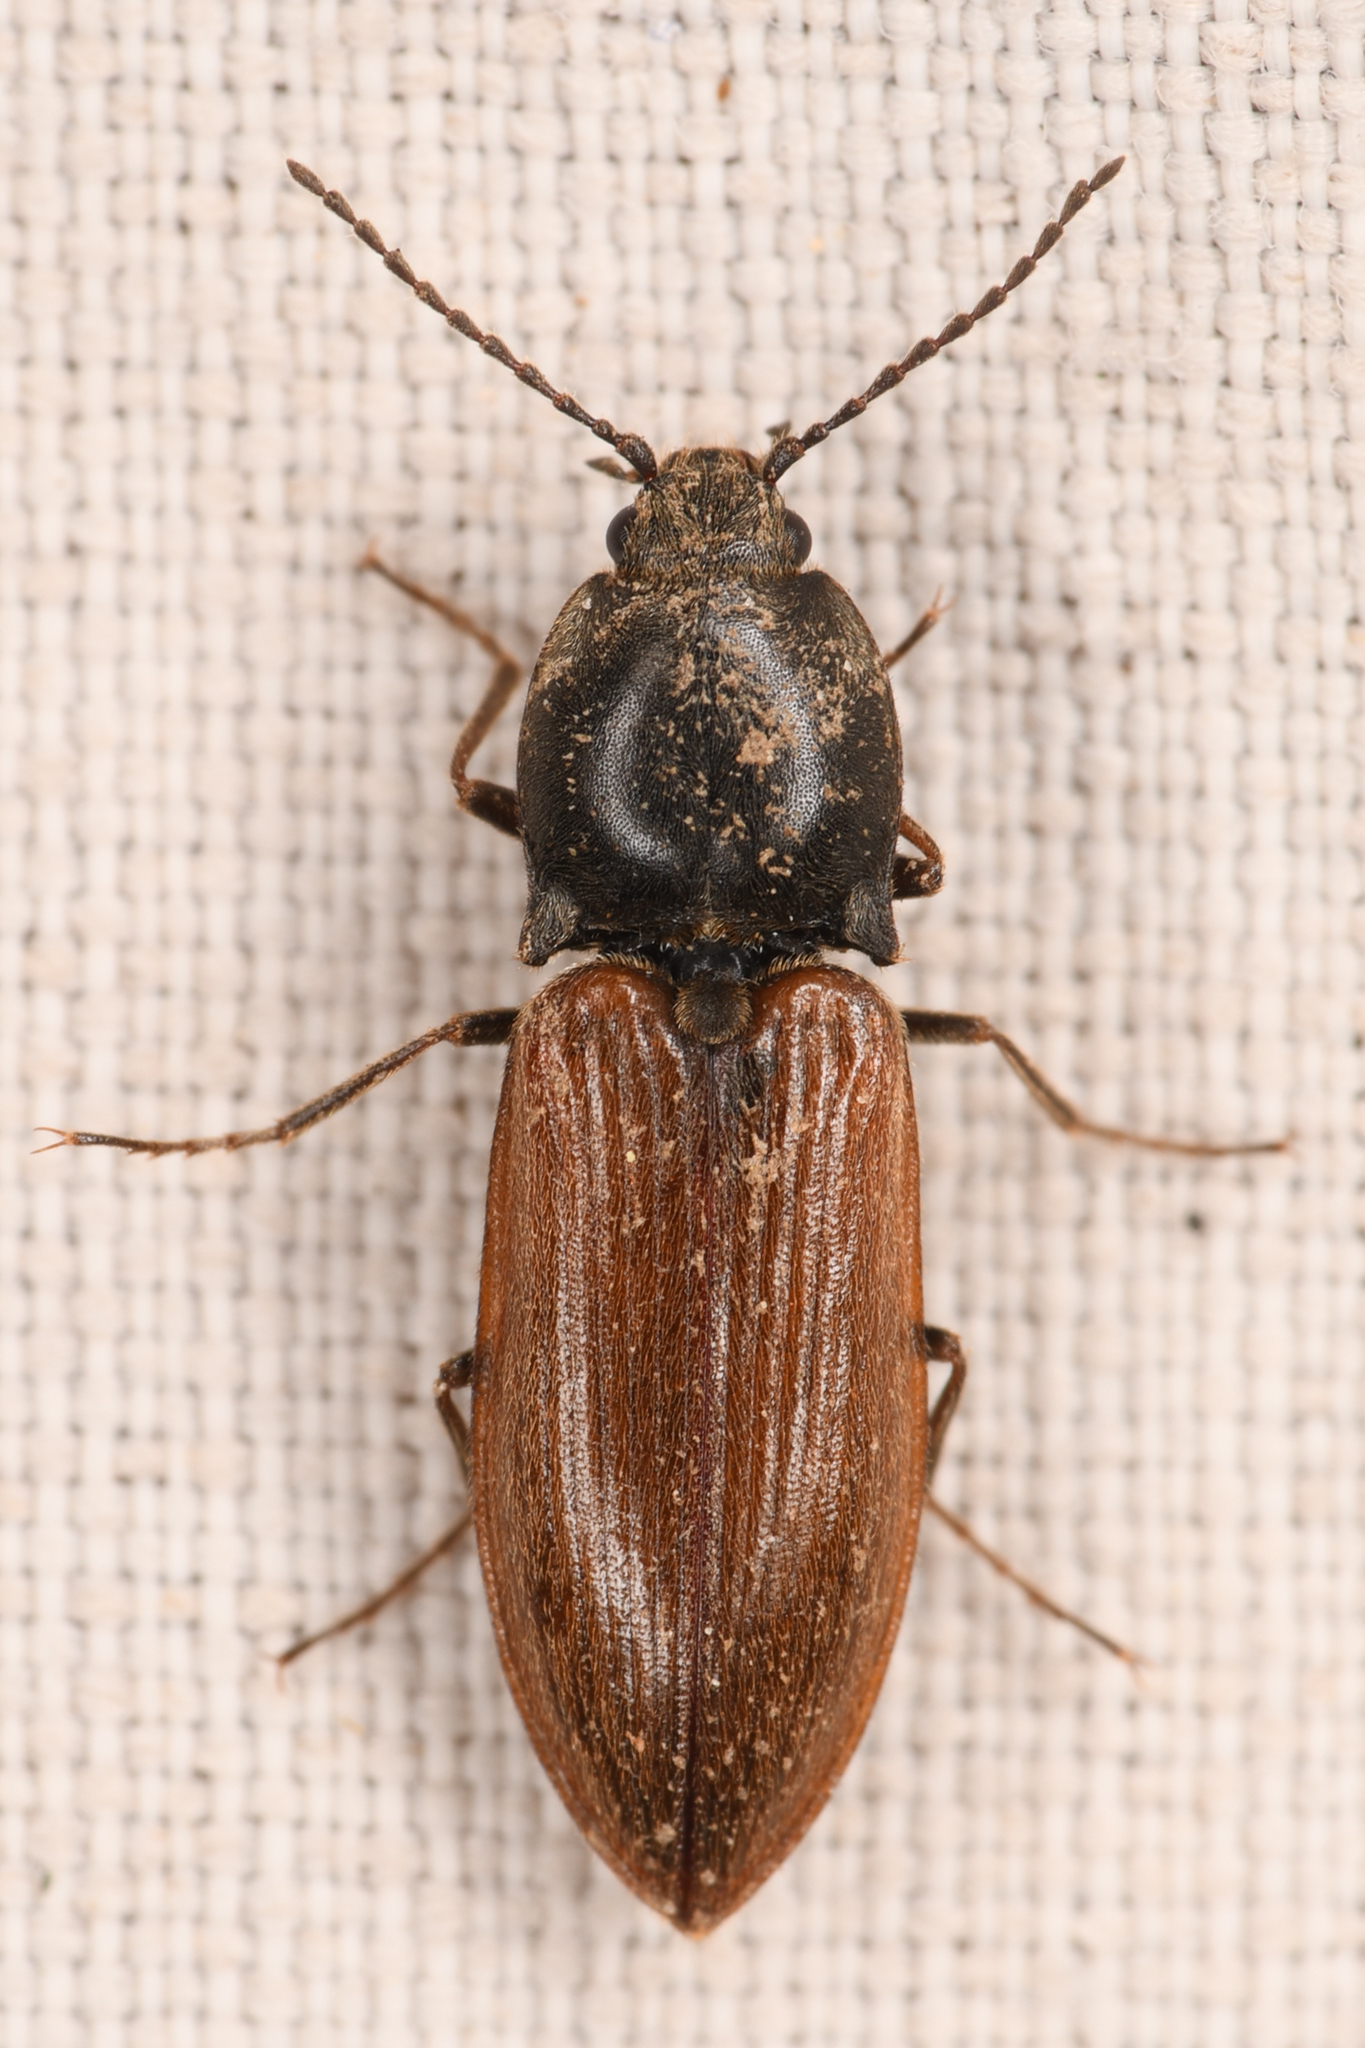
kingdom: Animalia
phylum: Arthropoda
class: Insecta
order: Coleoptera
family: Elateridae
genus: Pseudanostirus
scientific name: Pseudanostirus hoppingi
